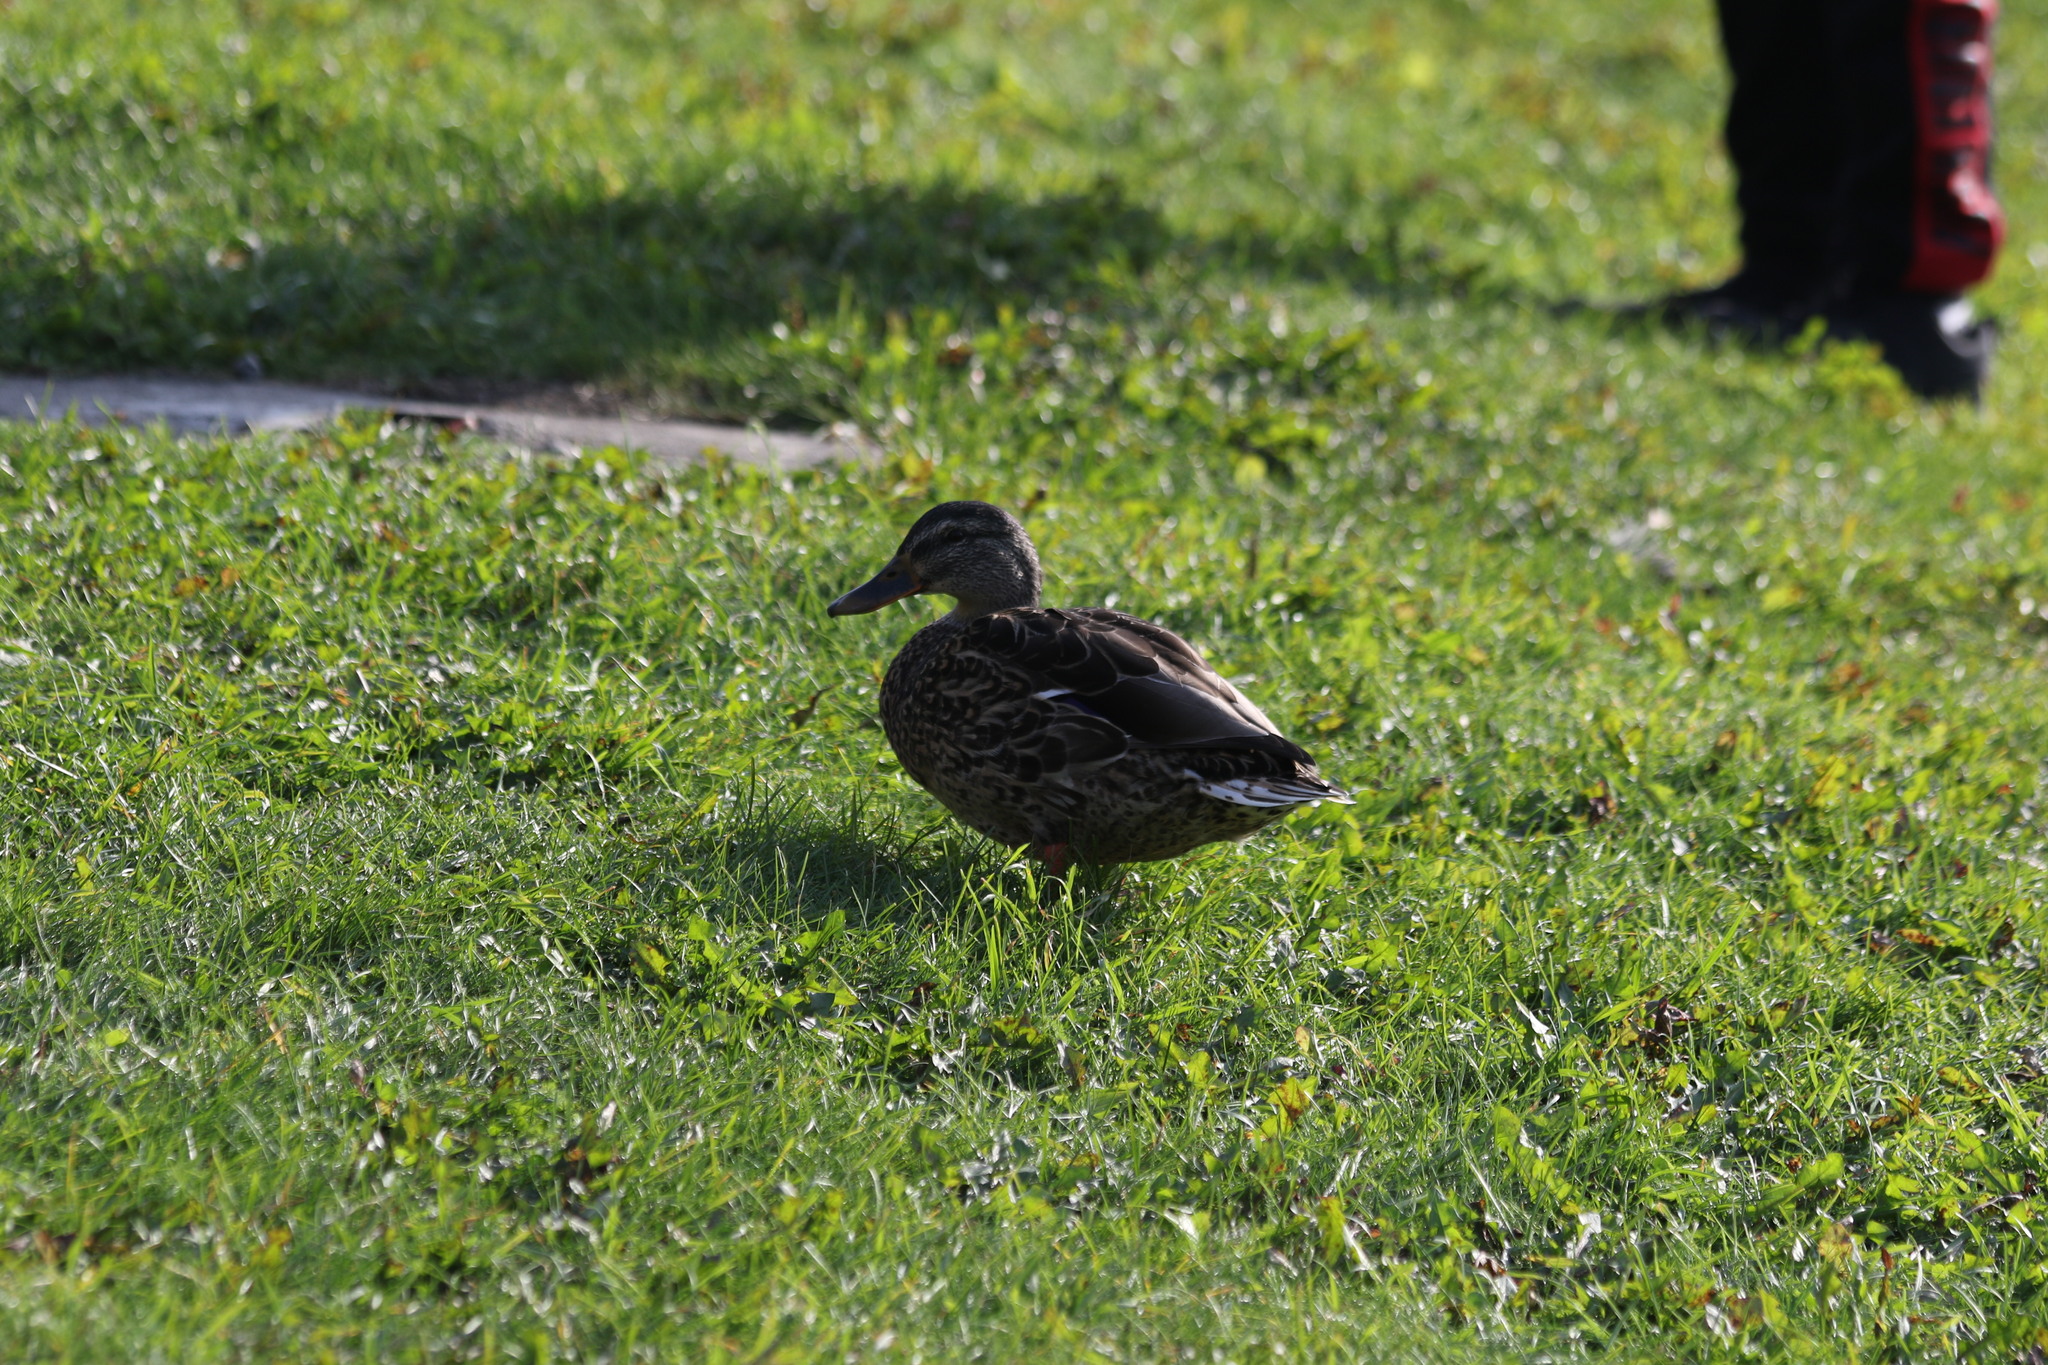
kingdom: Animalia
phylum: Chordata
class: Aves
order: Anseriformes
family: Anatidae
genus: Anas
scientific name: Anas platyrhynchos
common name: Mallard
